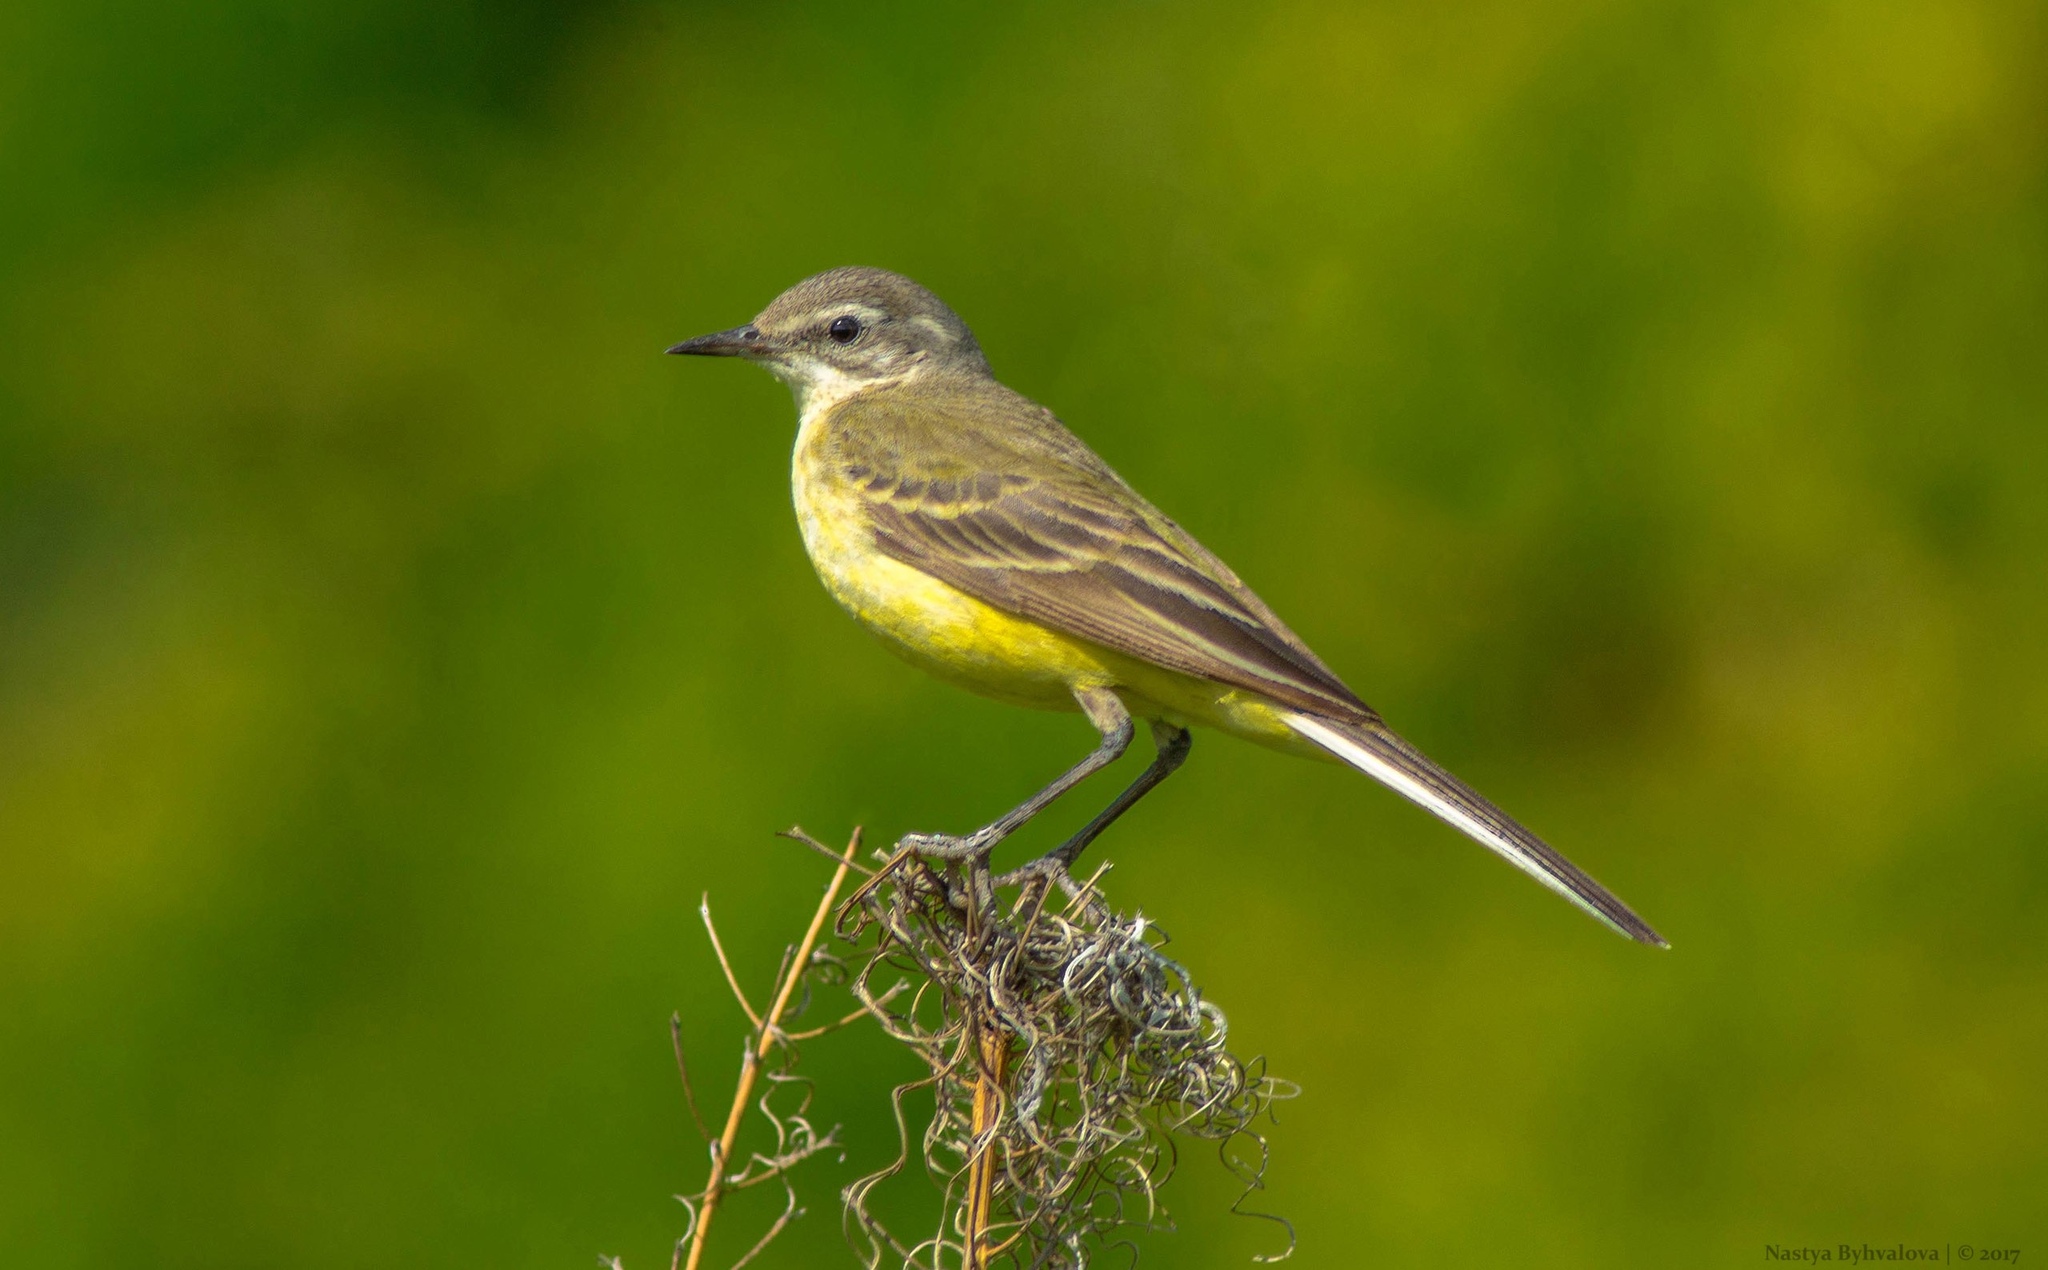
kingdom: Animalia
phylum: Chordata
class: Aves
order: Passeriformes
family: Motacillidae
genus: Motacilla
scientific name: Motacilla flava
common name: Western yellow wagtail
